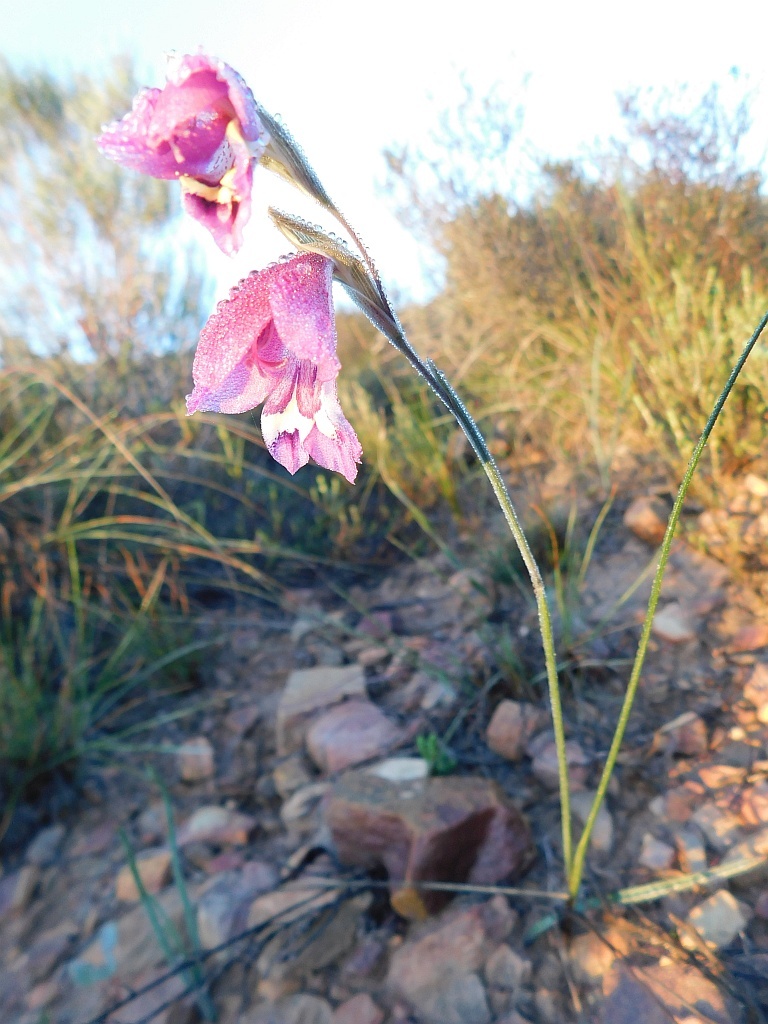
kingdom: Plantae
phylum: Tracheophyta
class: Liliopsida
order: Asparagales
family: Iridaceae
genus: Gladiolus
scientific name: Gladiolus carinatus
